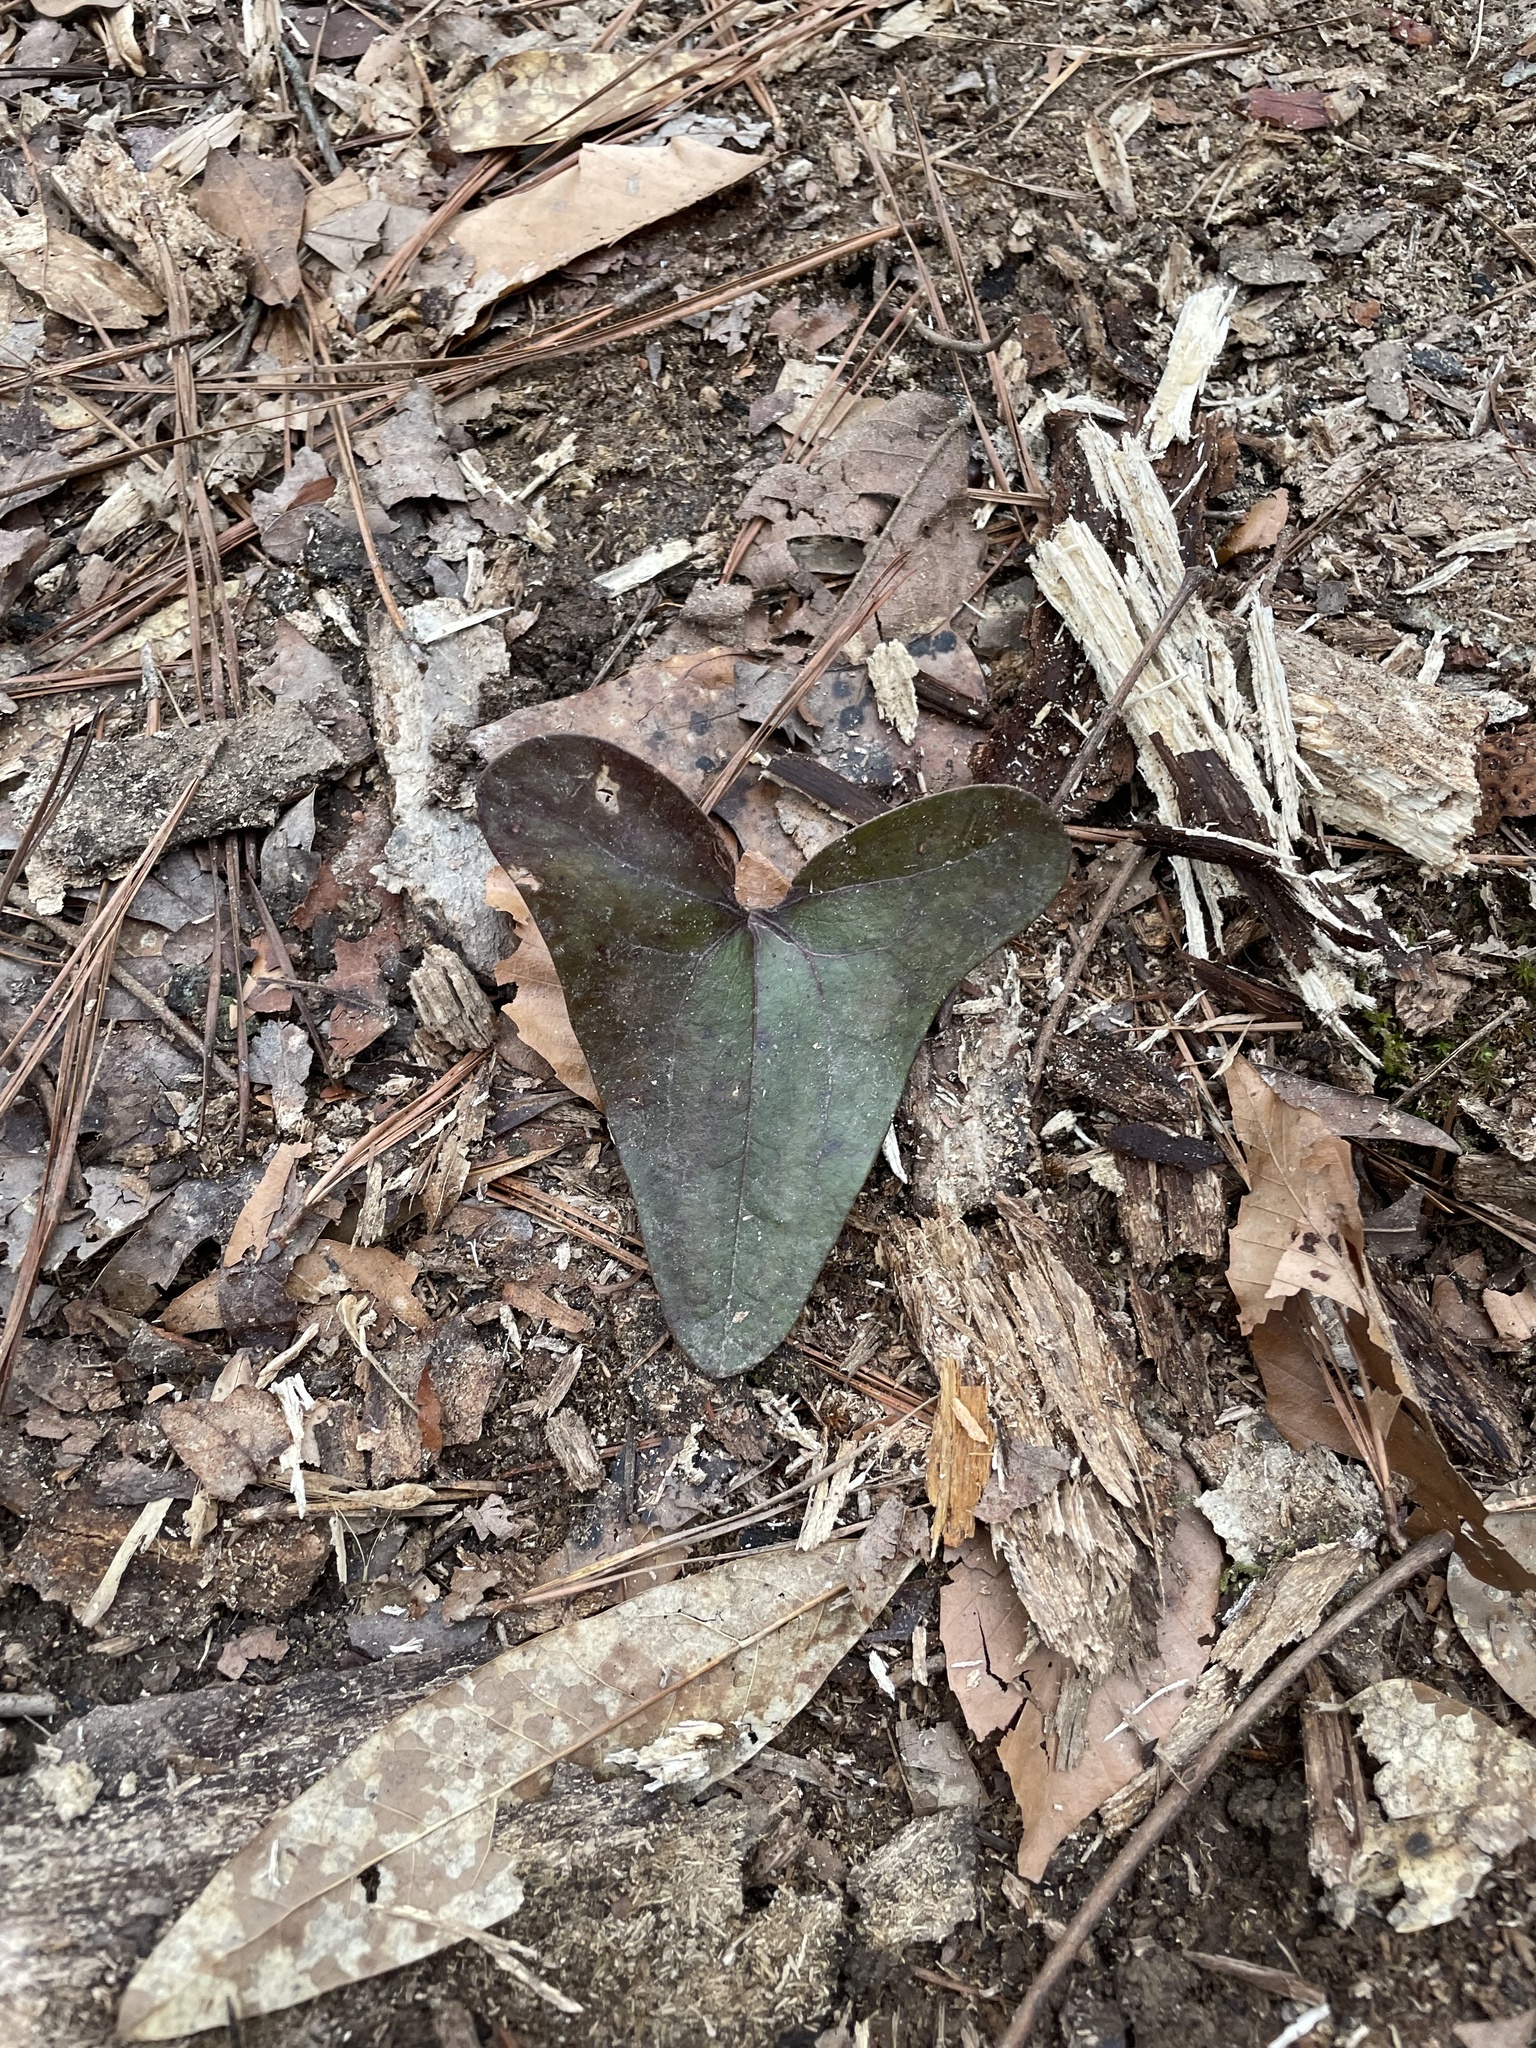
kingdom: Plantae
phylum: Tracheophyta
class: Magnoliopsida
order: Piperales
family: Aristolochiaceae
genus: Hexastylis
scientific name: Hexastylis arifolia
